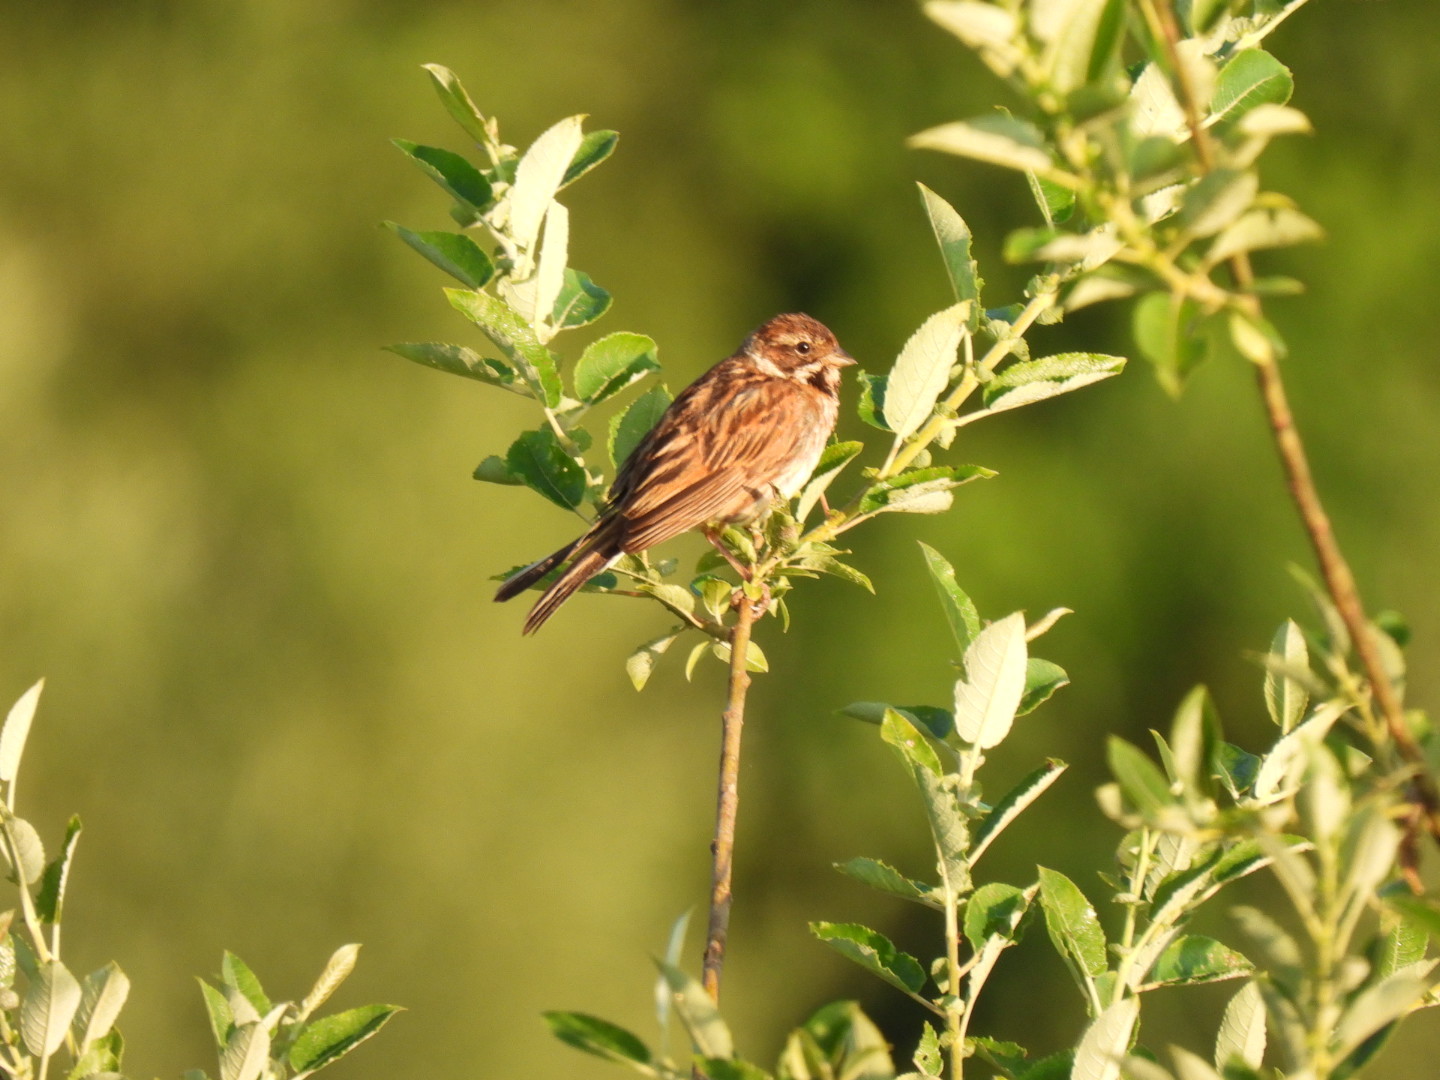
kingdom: Animalia
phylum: Chordata
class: Aves
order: Passeriformes
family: Emberizidae
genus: Emberiza
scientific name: Emberiza schoeniclus
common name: Reed bunting
